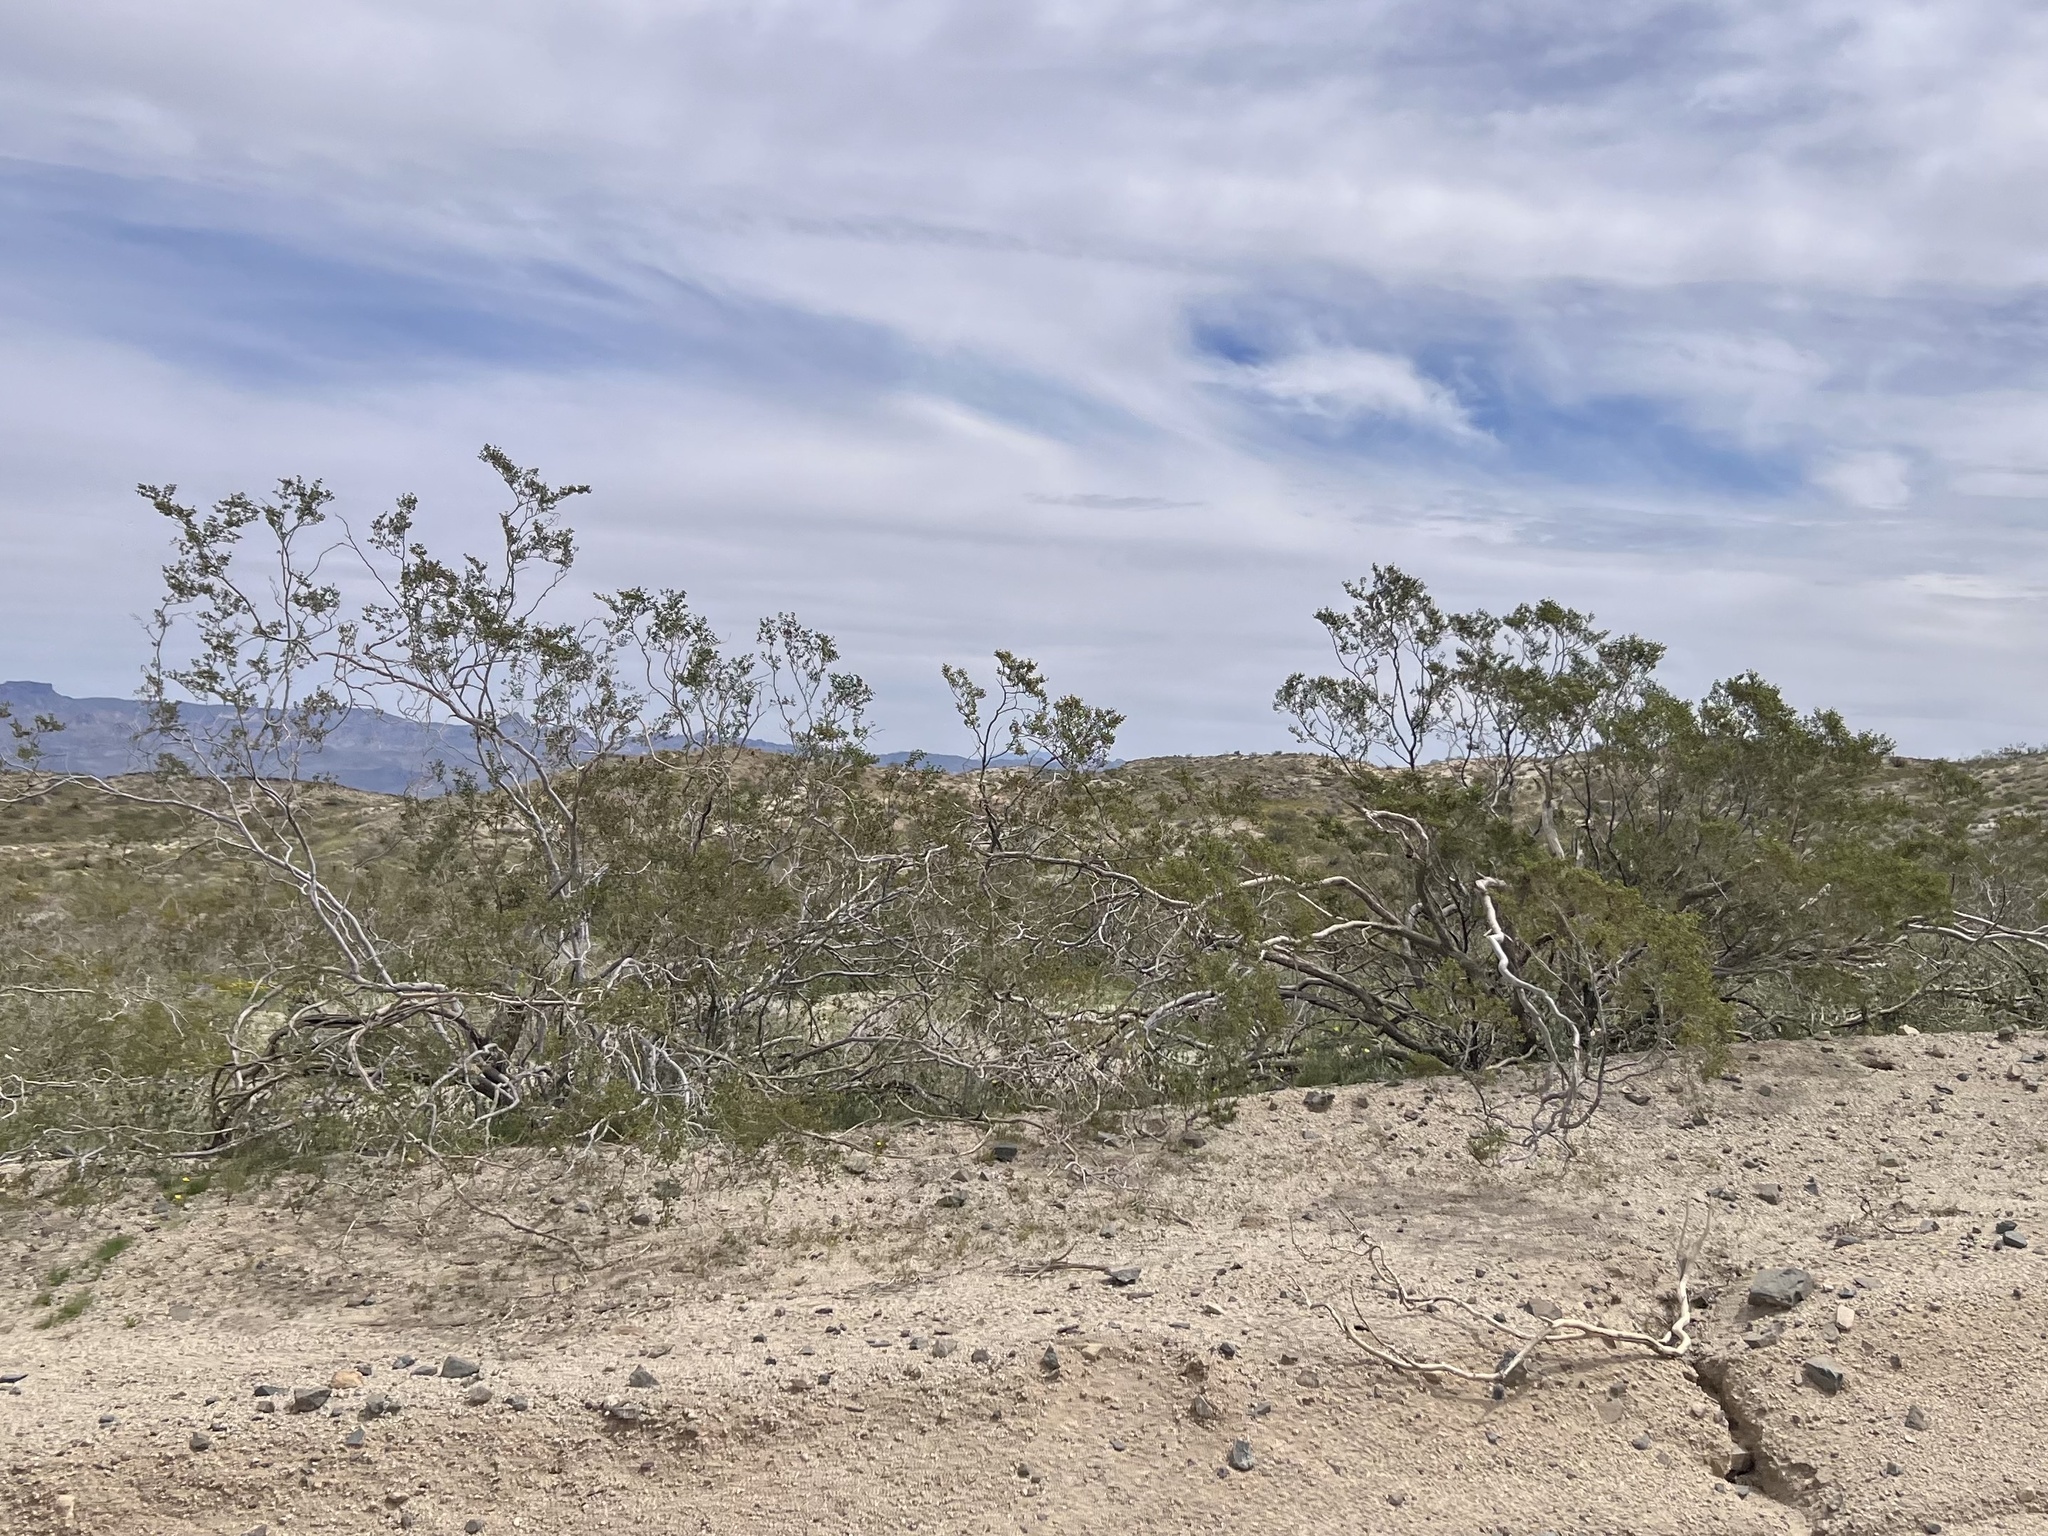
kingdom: Plantae
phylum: Tracheophyta
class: Magnoliopsida
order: Zygophyllales
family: Zygophyllaceae
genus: Larrea
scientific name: Larrea tridentata
